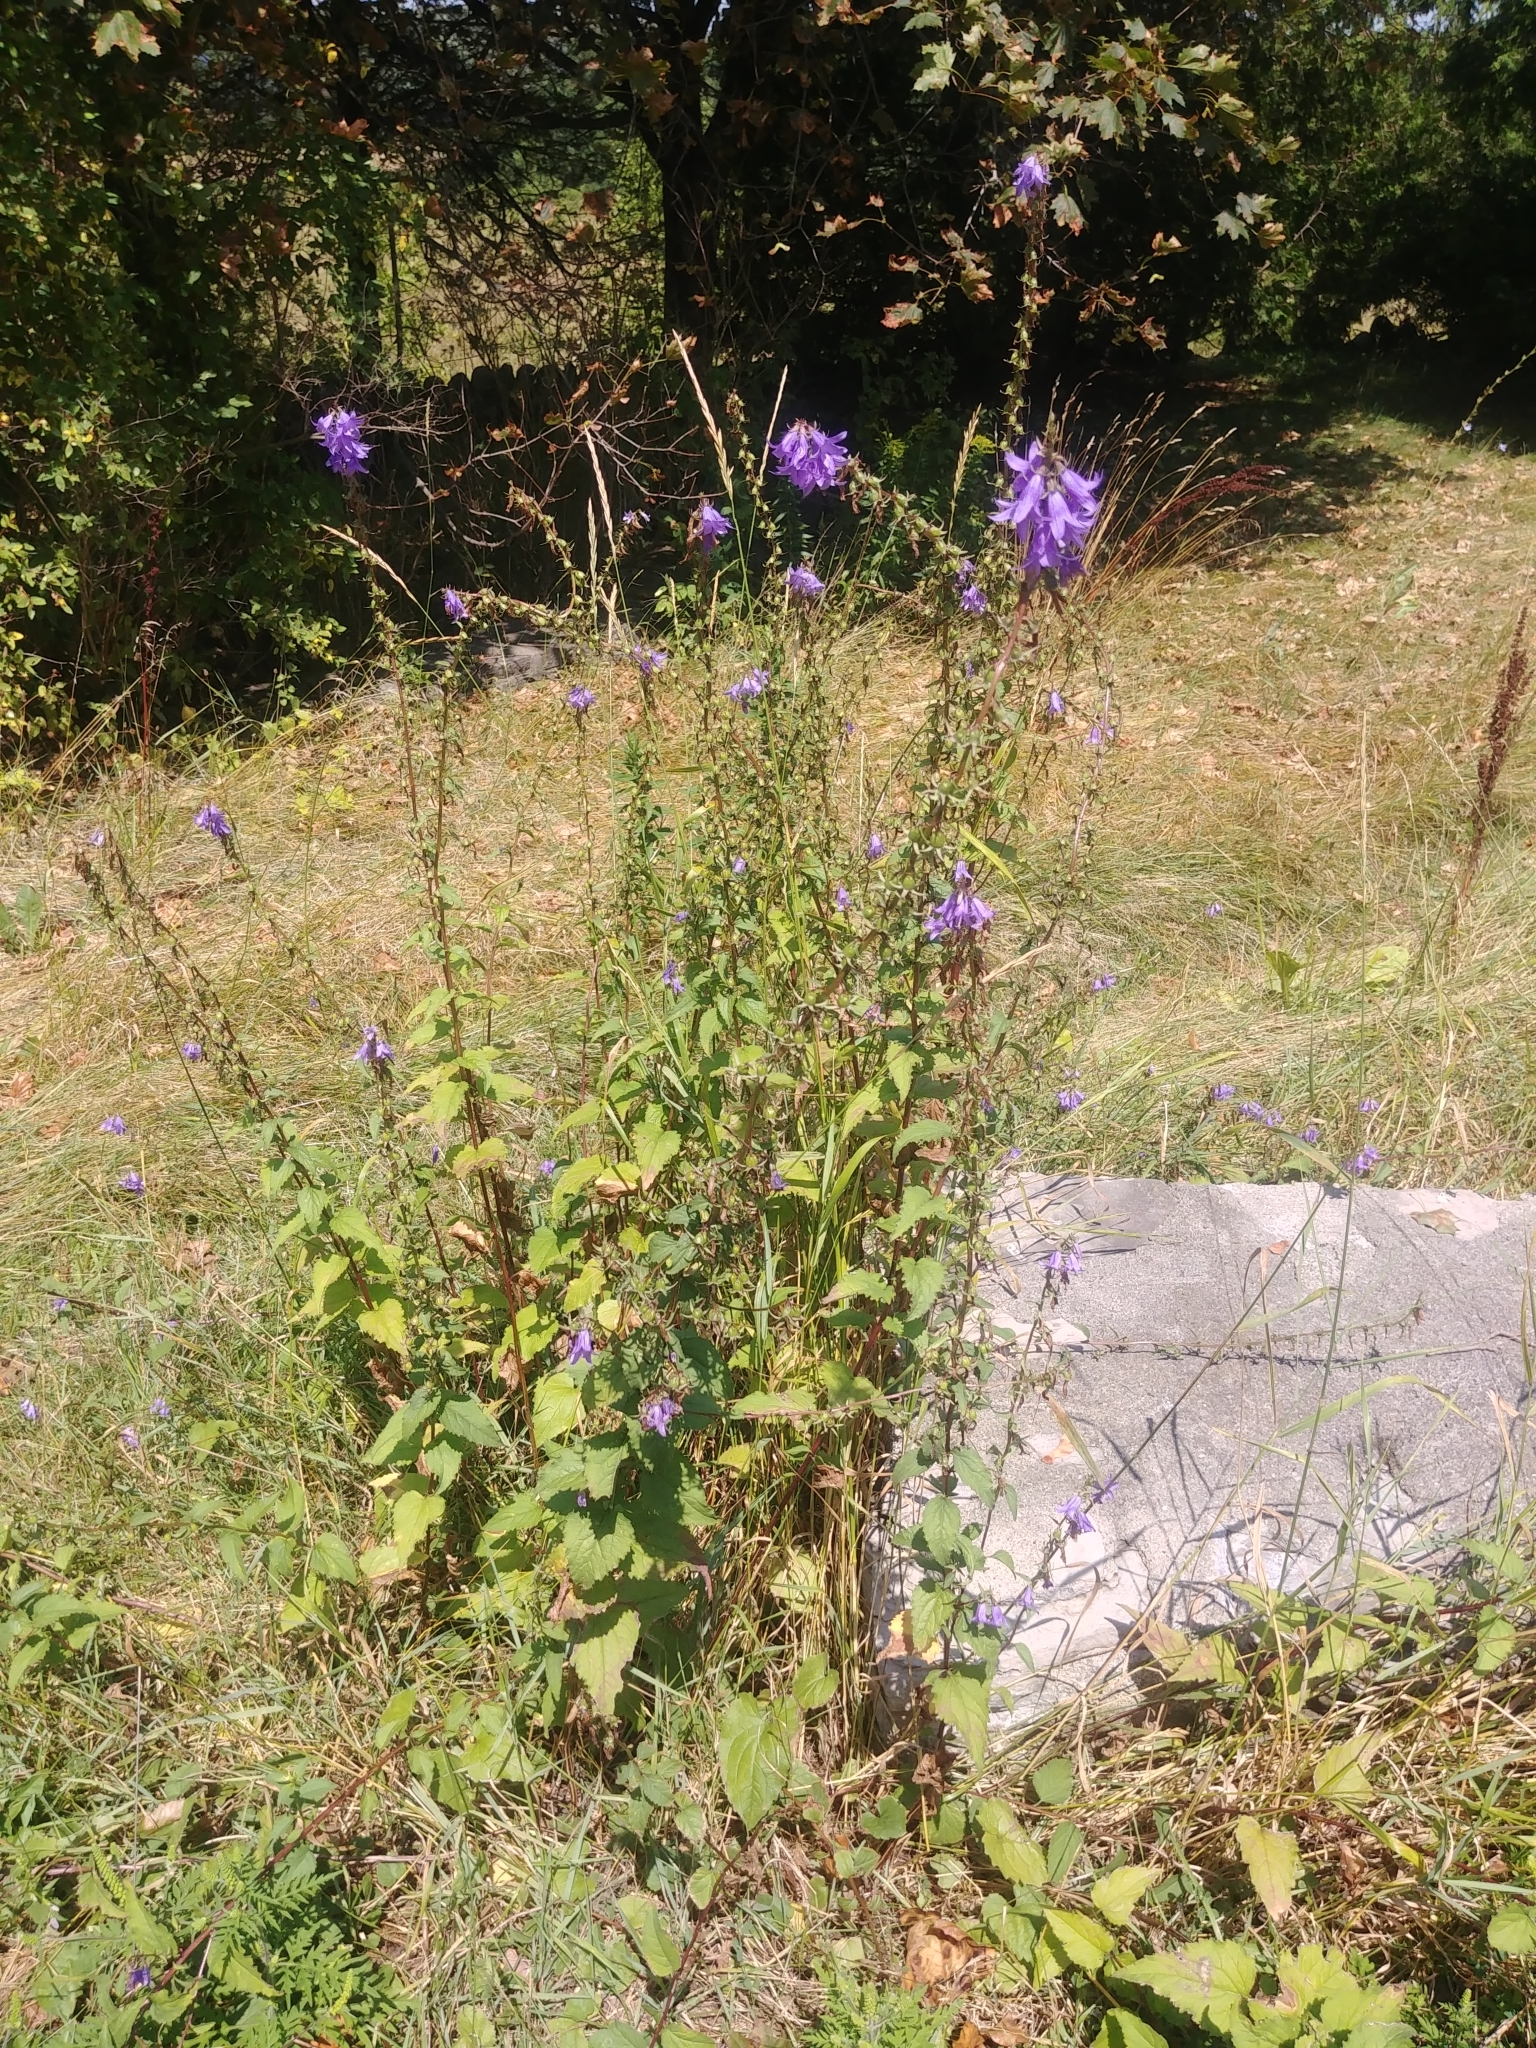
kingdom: Plantae
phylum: Tracheophyta
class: Magnoliopsida
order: Asterales
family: Campanulaceae
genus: Campanula
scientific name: Campanula rapunculoides
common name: Creeping bellflower
